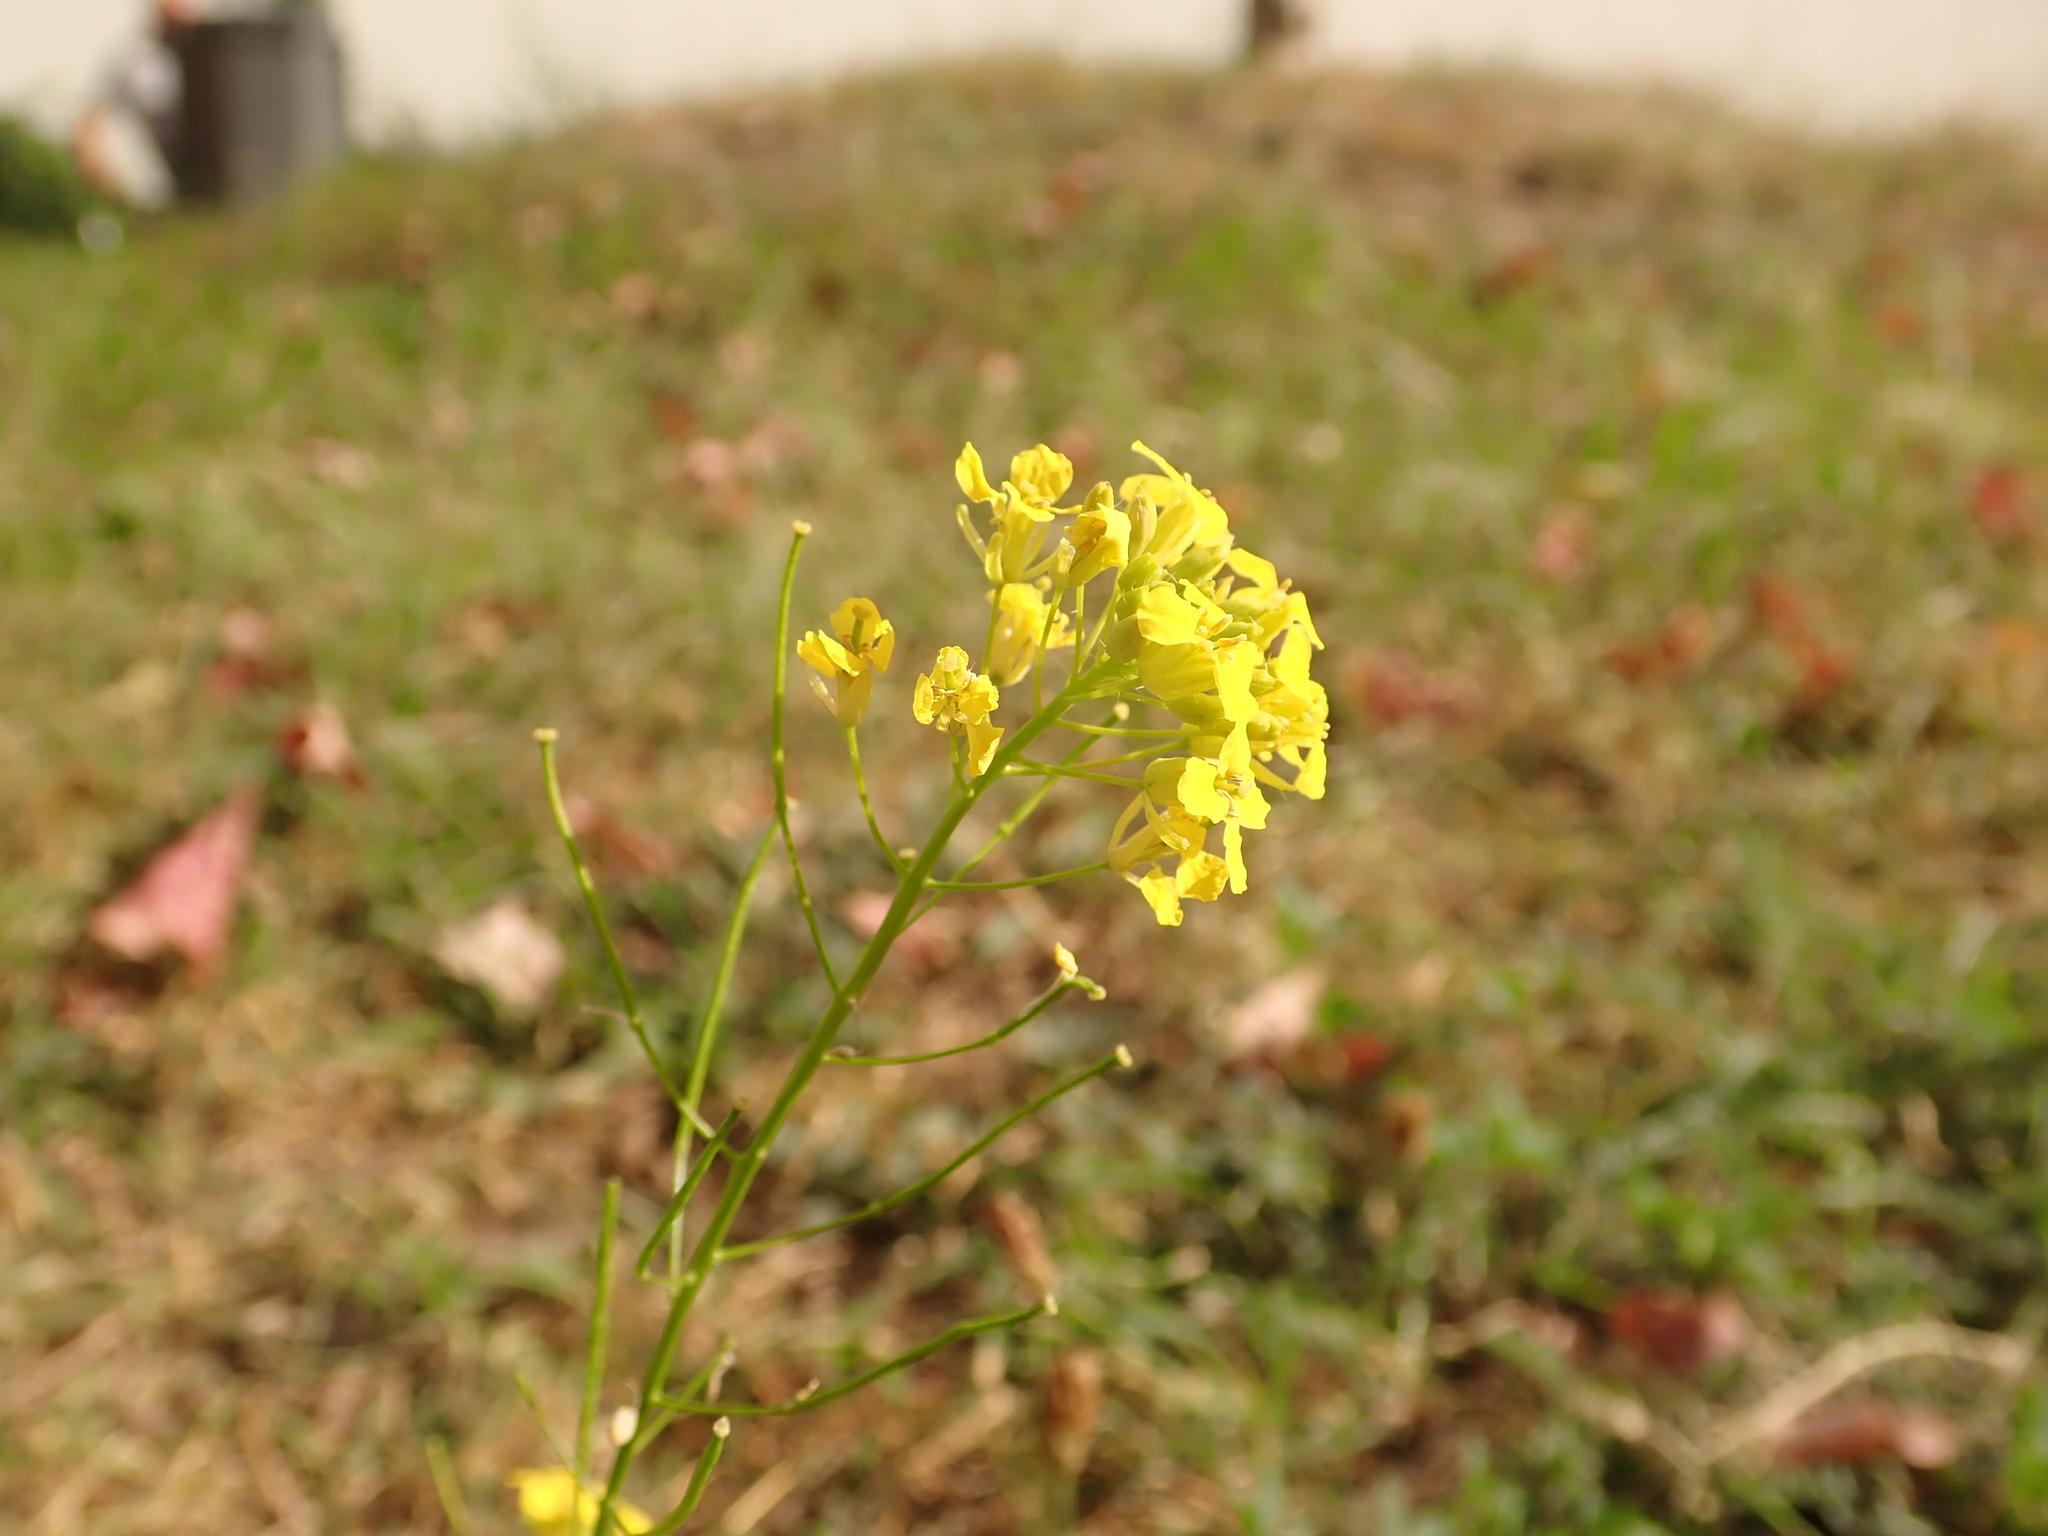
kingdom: Plantae
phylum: Tracheophyta
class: Magnoliopsida
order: Brassicales
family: Brassicaceae
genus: Sisymbrium
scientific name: Sisymbrium loeselii
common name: False london-rocket
